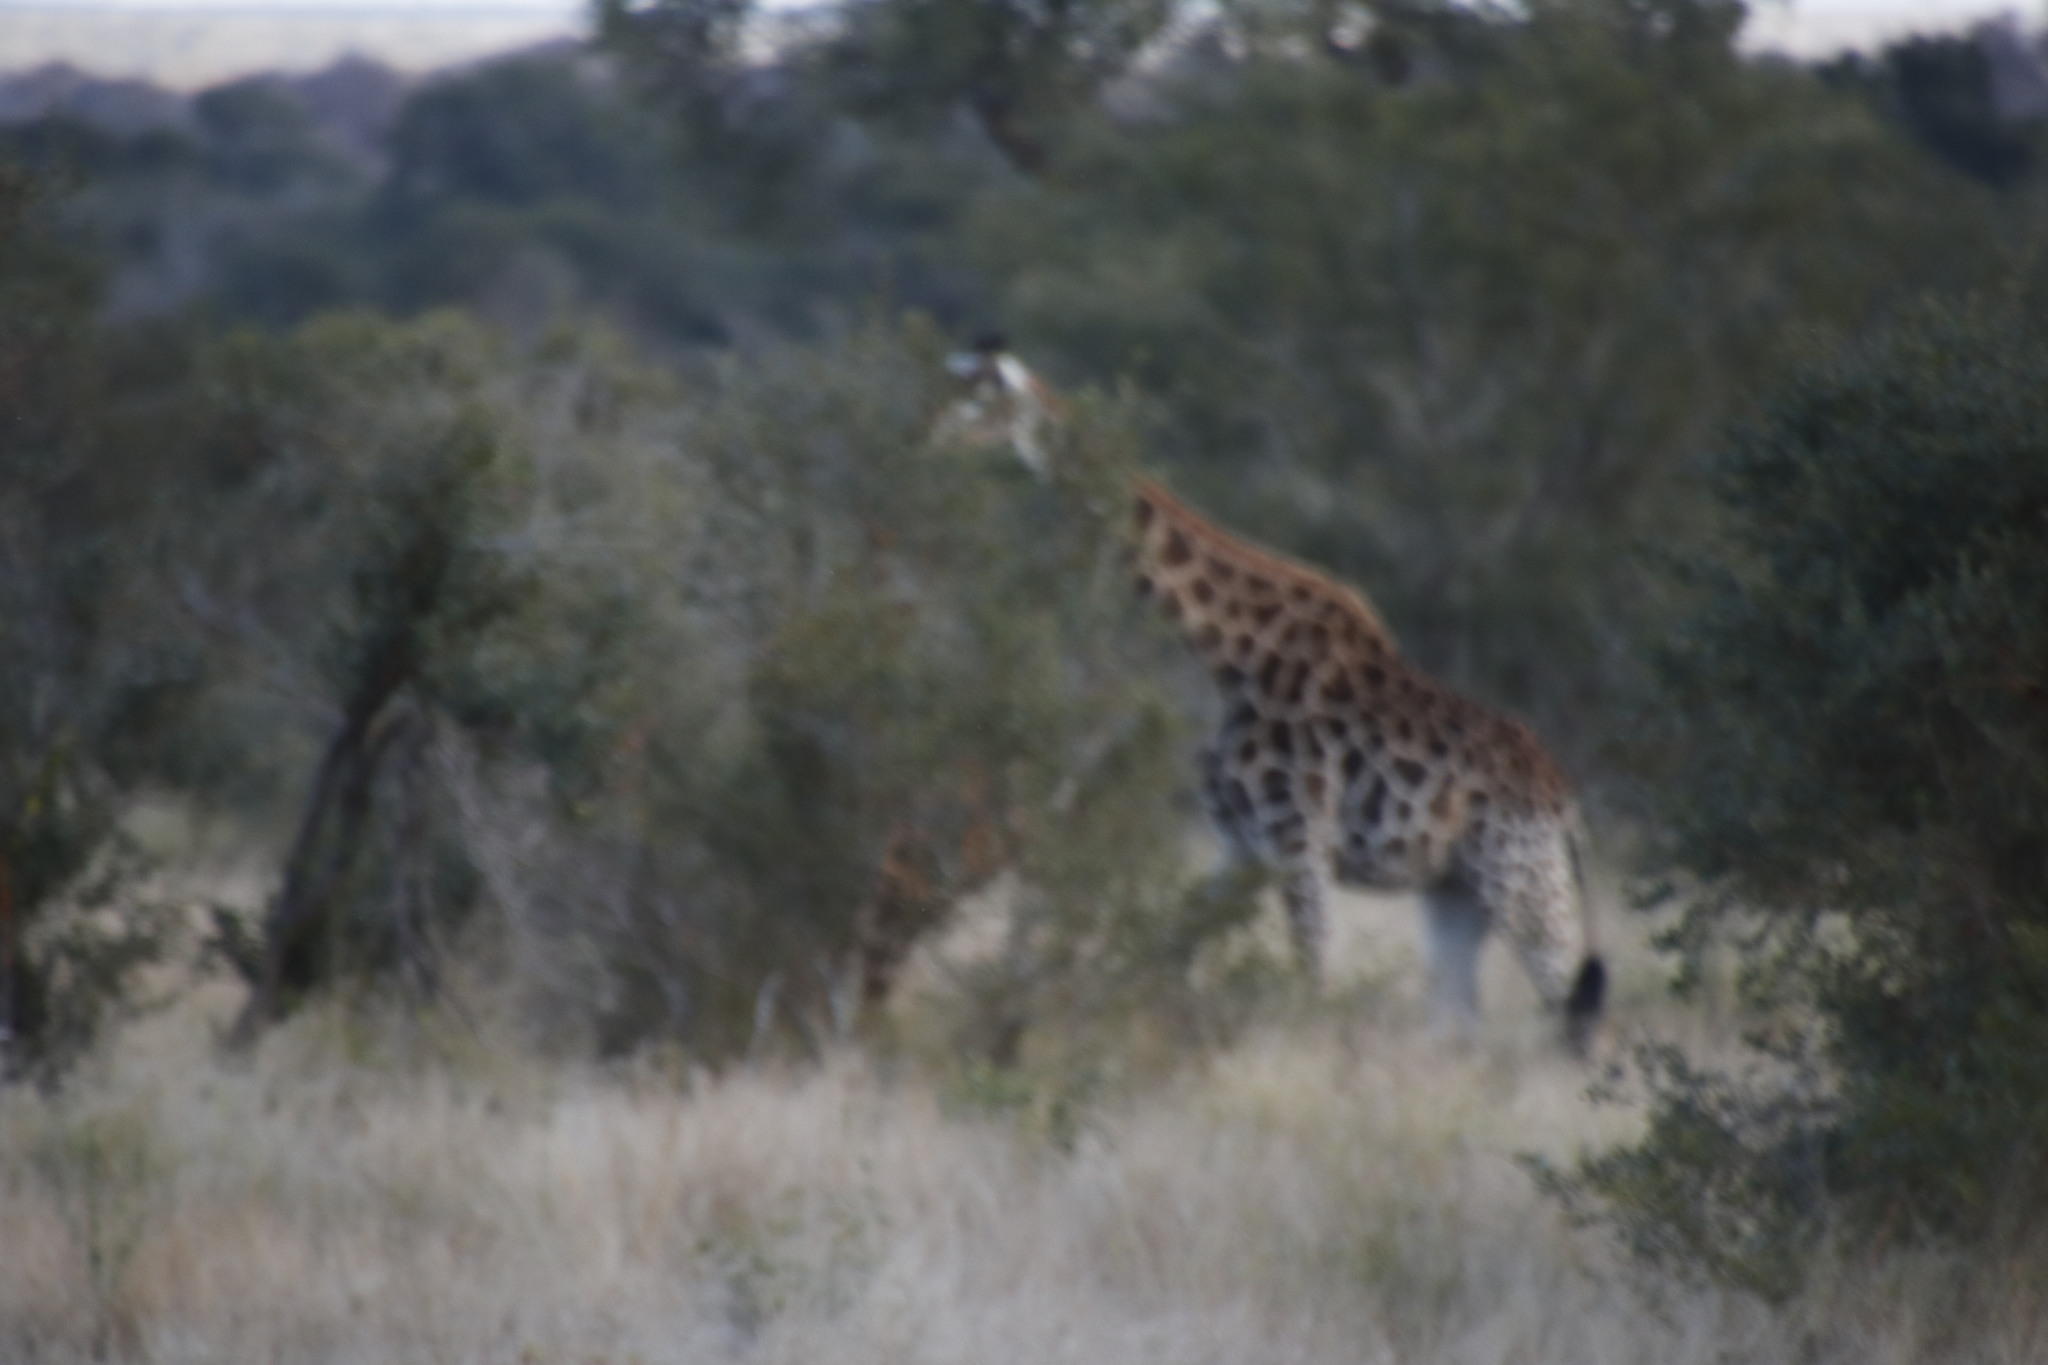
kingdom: Animalia
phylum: Chordata
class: Mammalia
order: Artiodactyla
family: Giraffidae
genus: Giraffa
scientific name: Giraffa giraffa
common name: Southern giraffe
